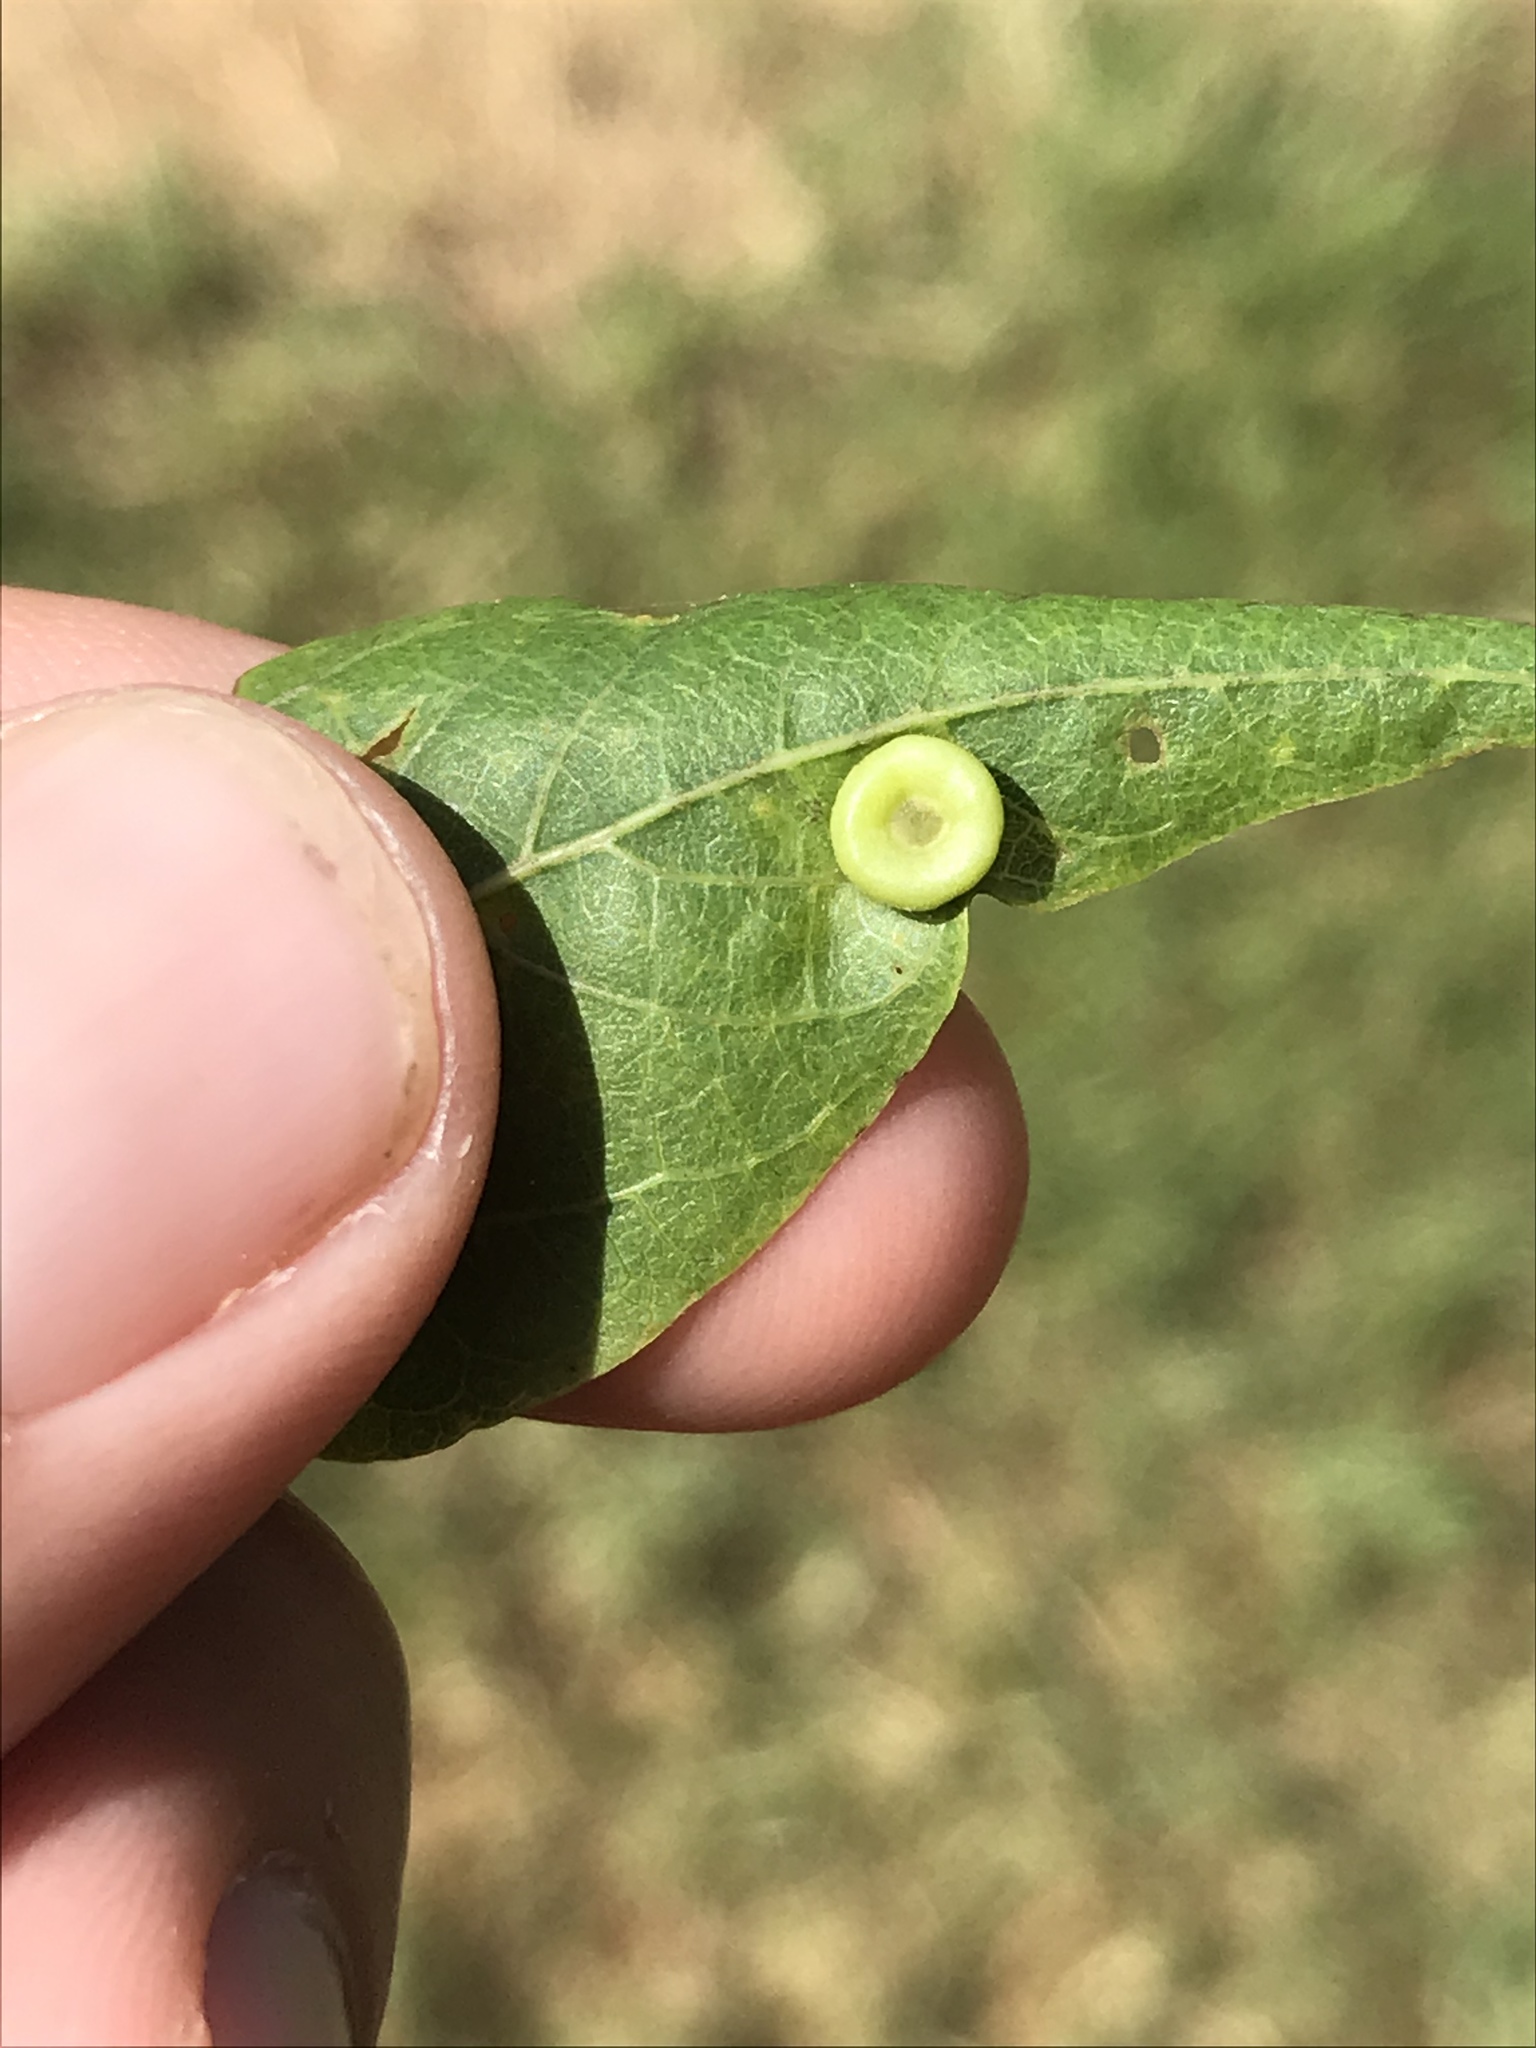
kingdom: Animalia
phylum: Arthropoda
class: Insecta
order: Hemiptera
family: Aphalaridae
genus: Pachypsylla
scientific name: Pachypsylla celtidismamma
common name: Hackberry nipplegall psyllid
